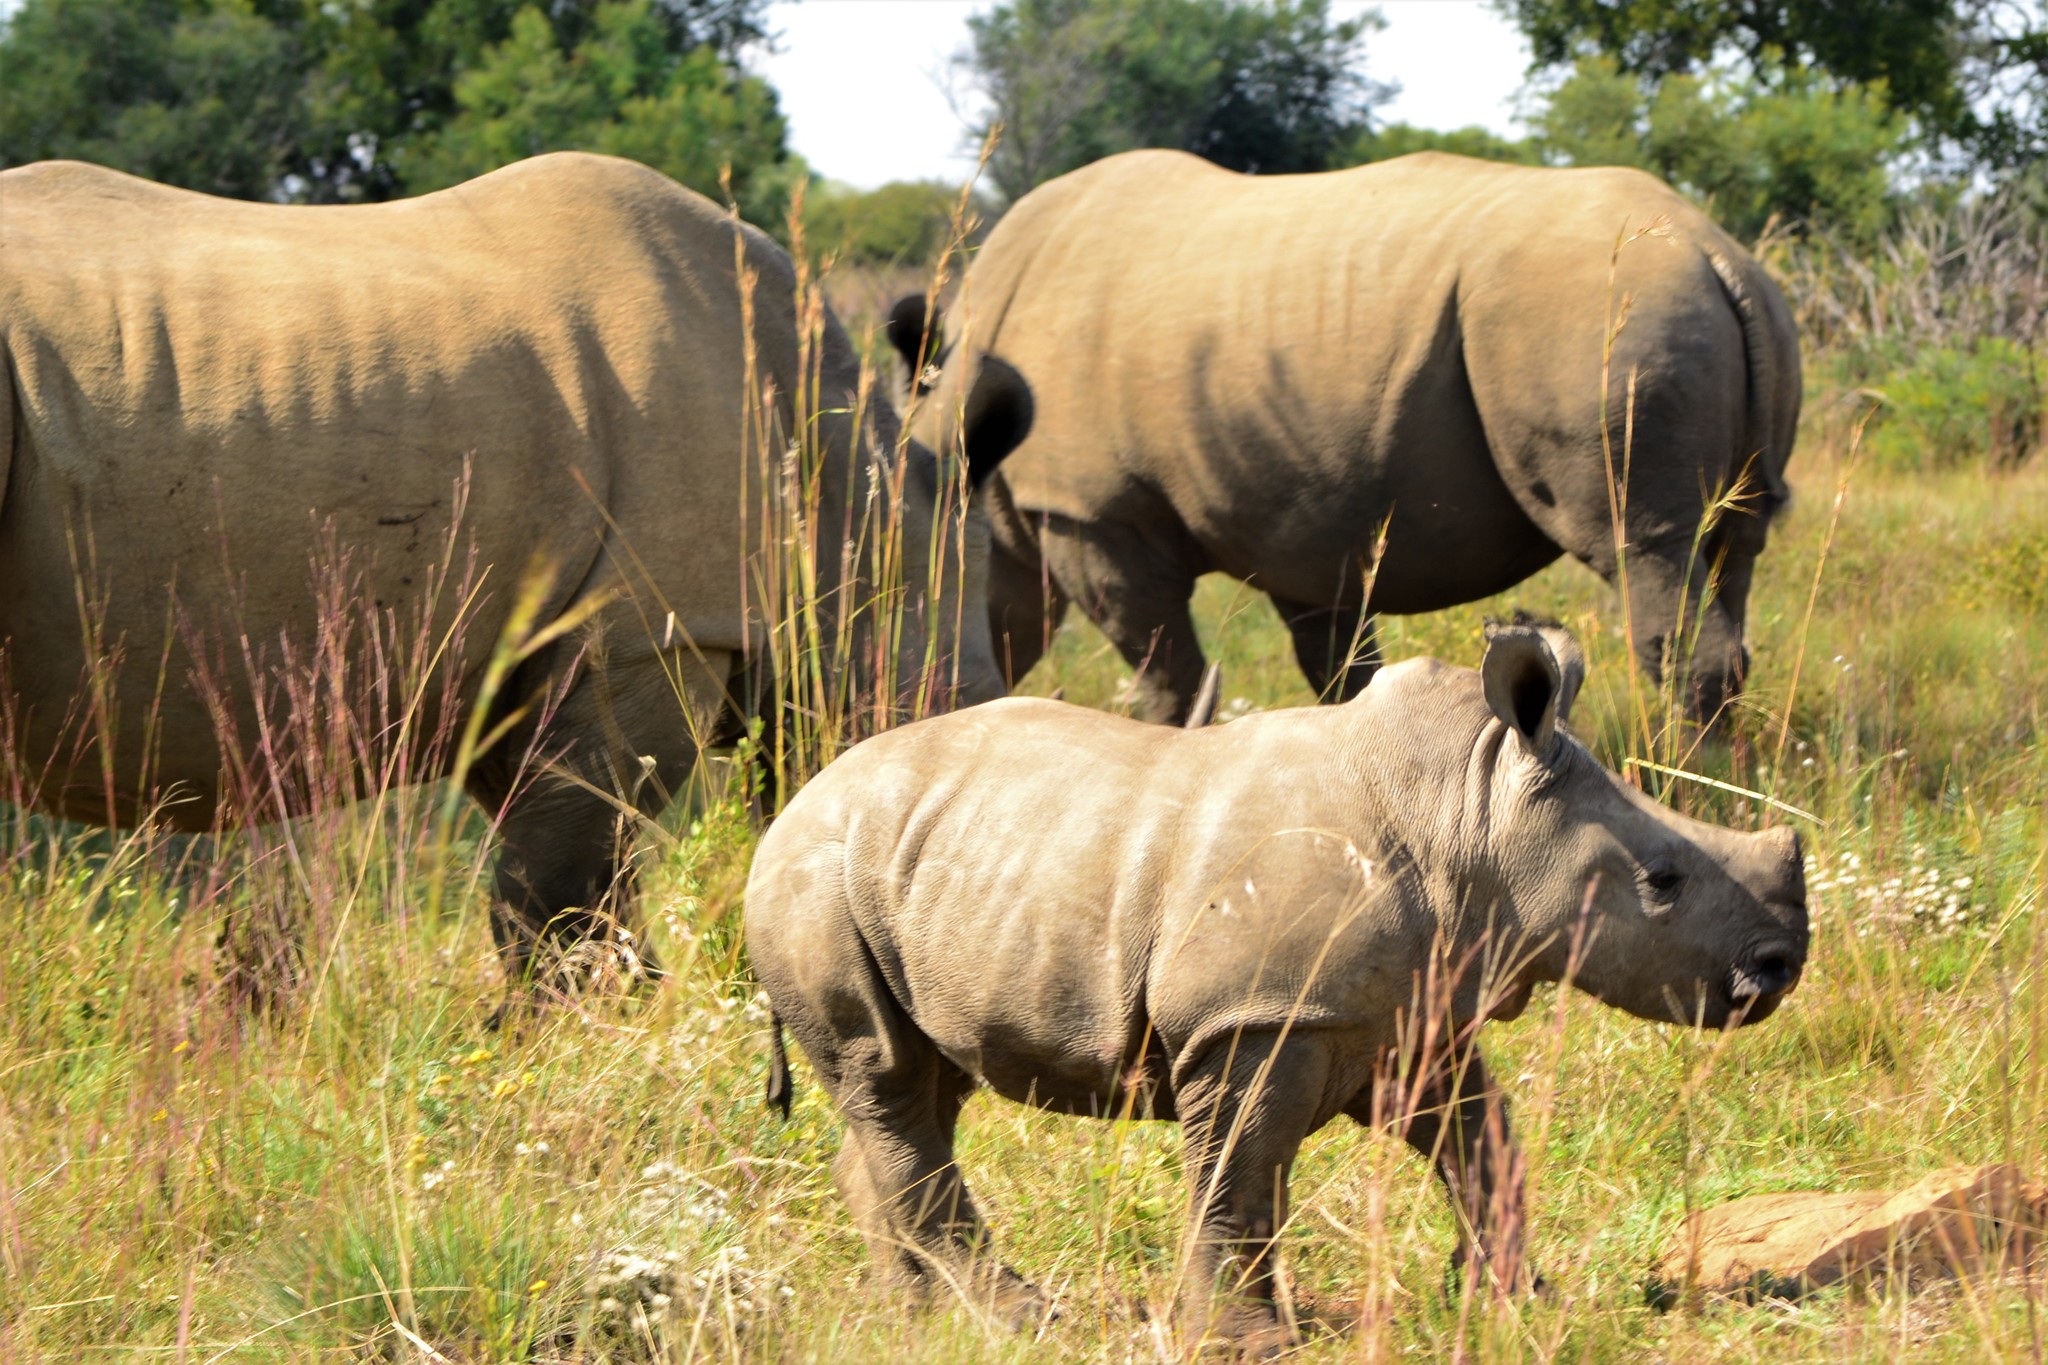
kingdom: Animalia
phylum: Chordata
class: Mammalia
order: Perissodactyla
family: Rhinocerotidae
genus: Ceratotherium
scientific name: Ceratotherium simum
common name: White rhinoceros
